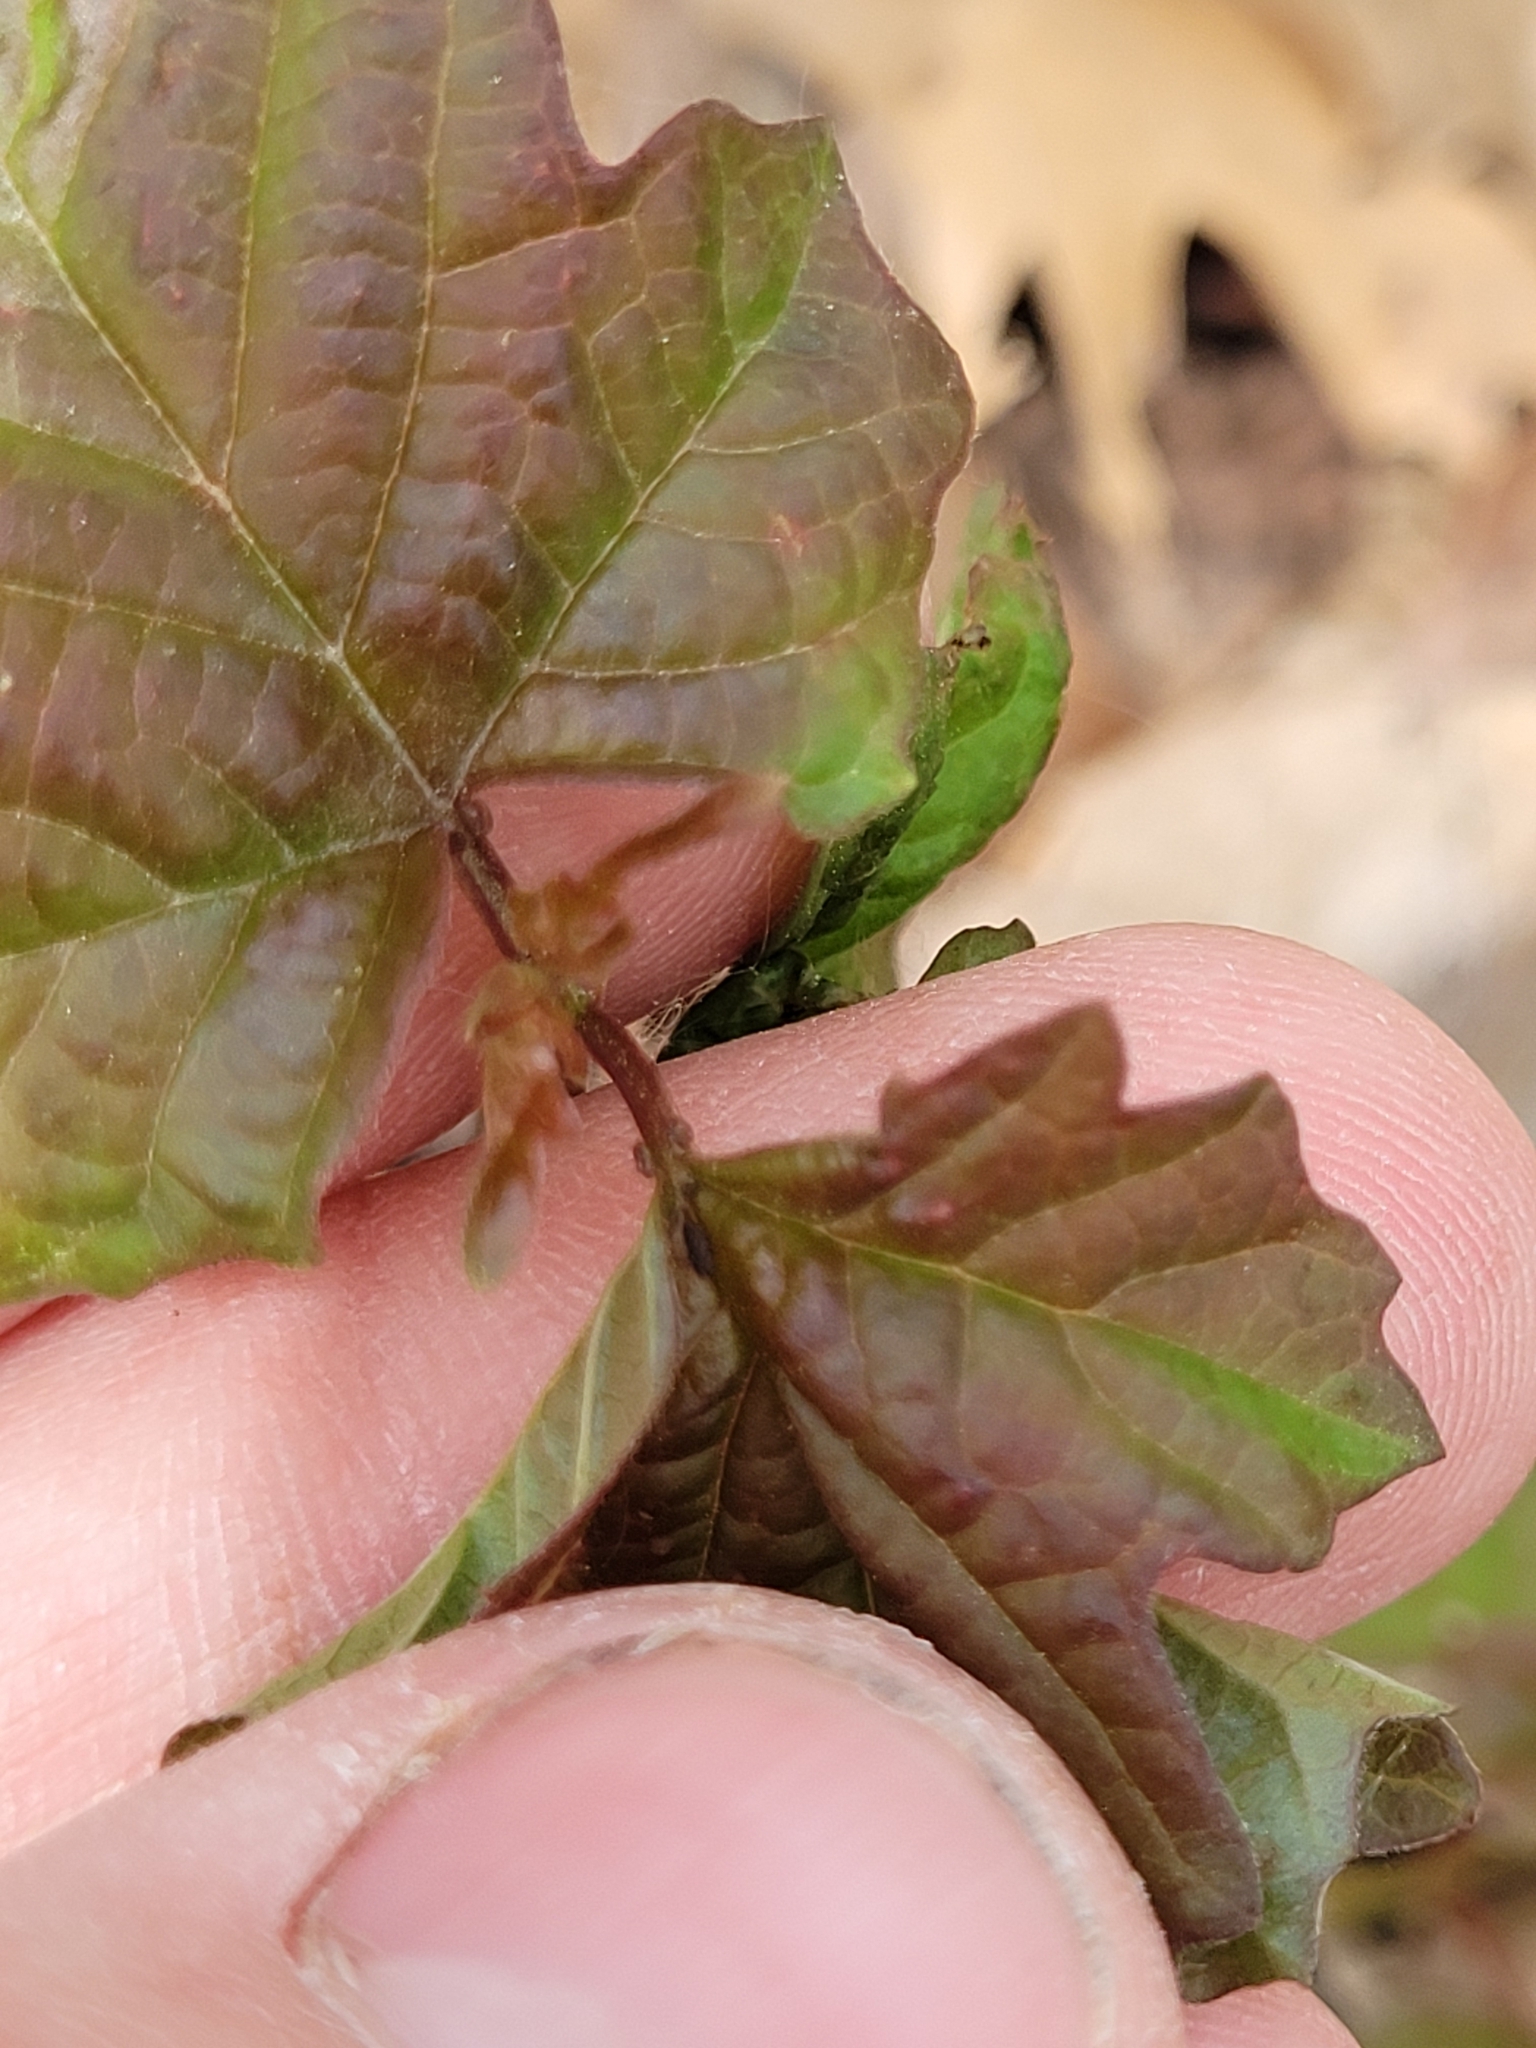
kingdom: Plantae
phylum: Tracheophyta
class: Magnoliopsida
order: Dipsacales
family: Viburnaceae
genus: Viburnum
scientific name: Viburnum opulus
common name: Guelder-rose
